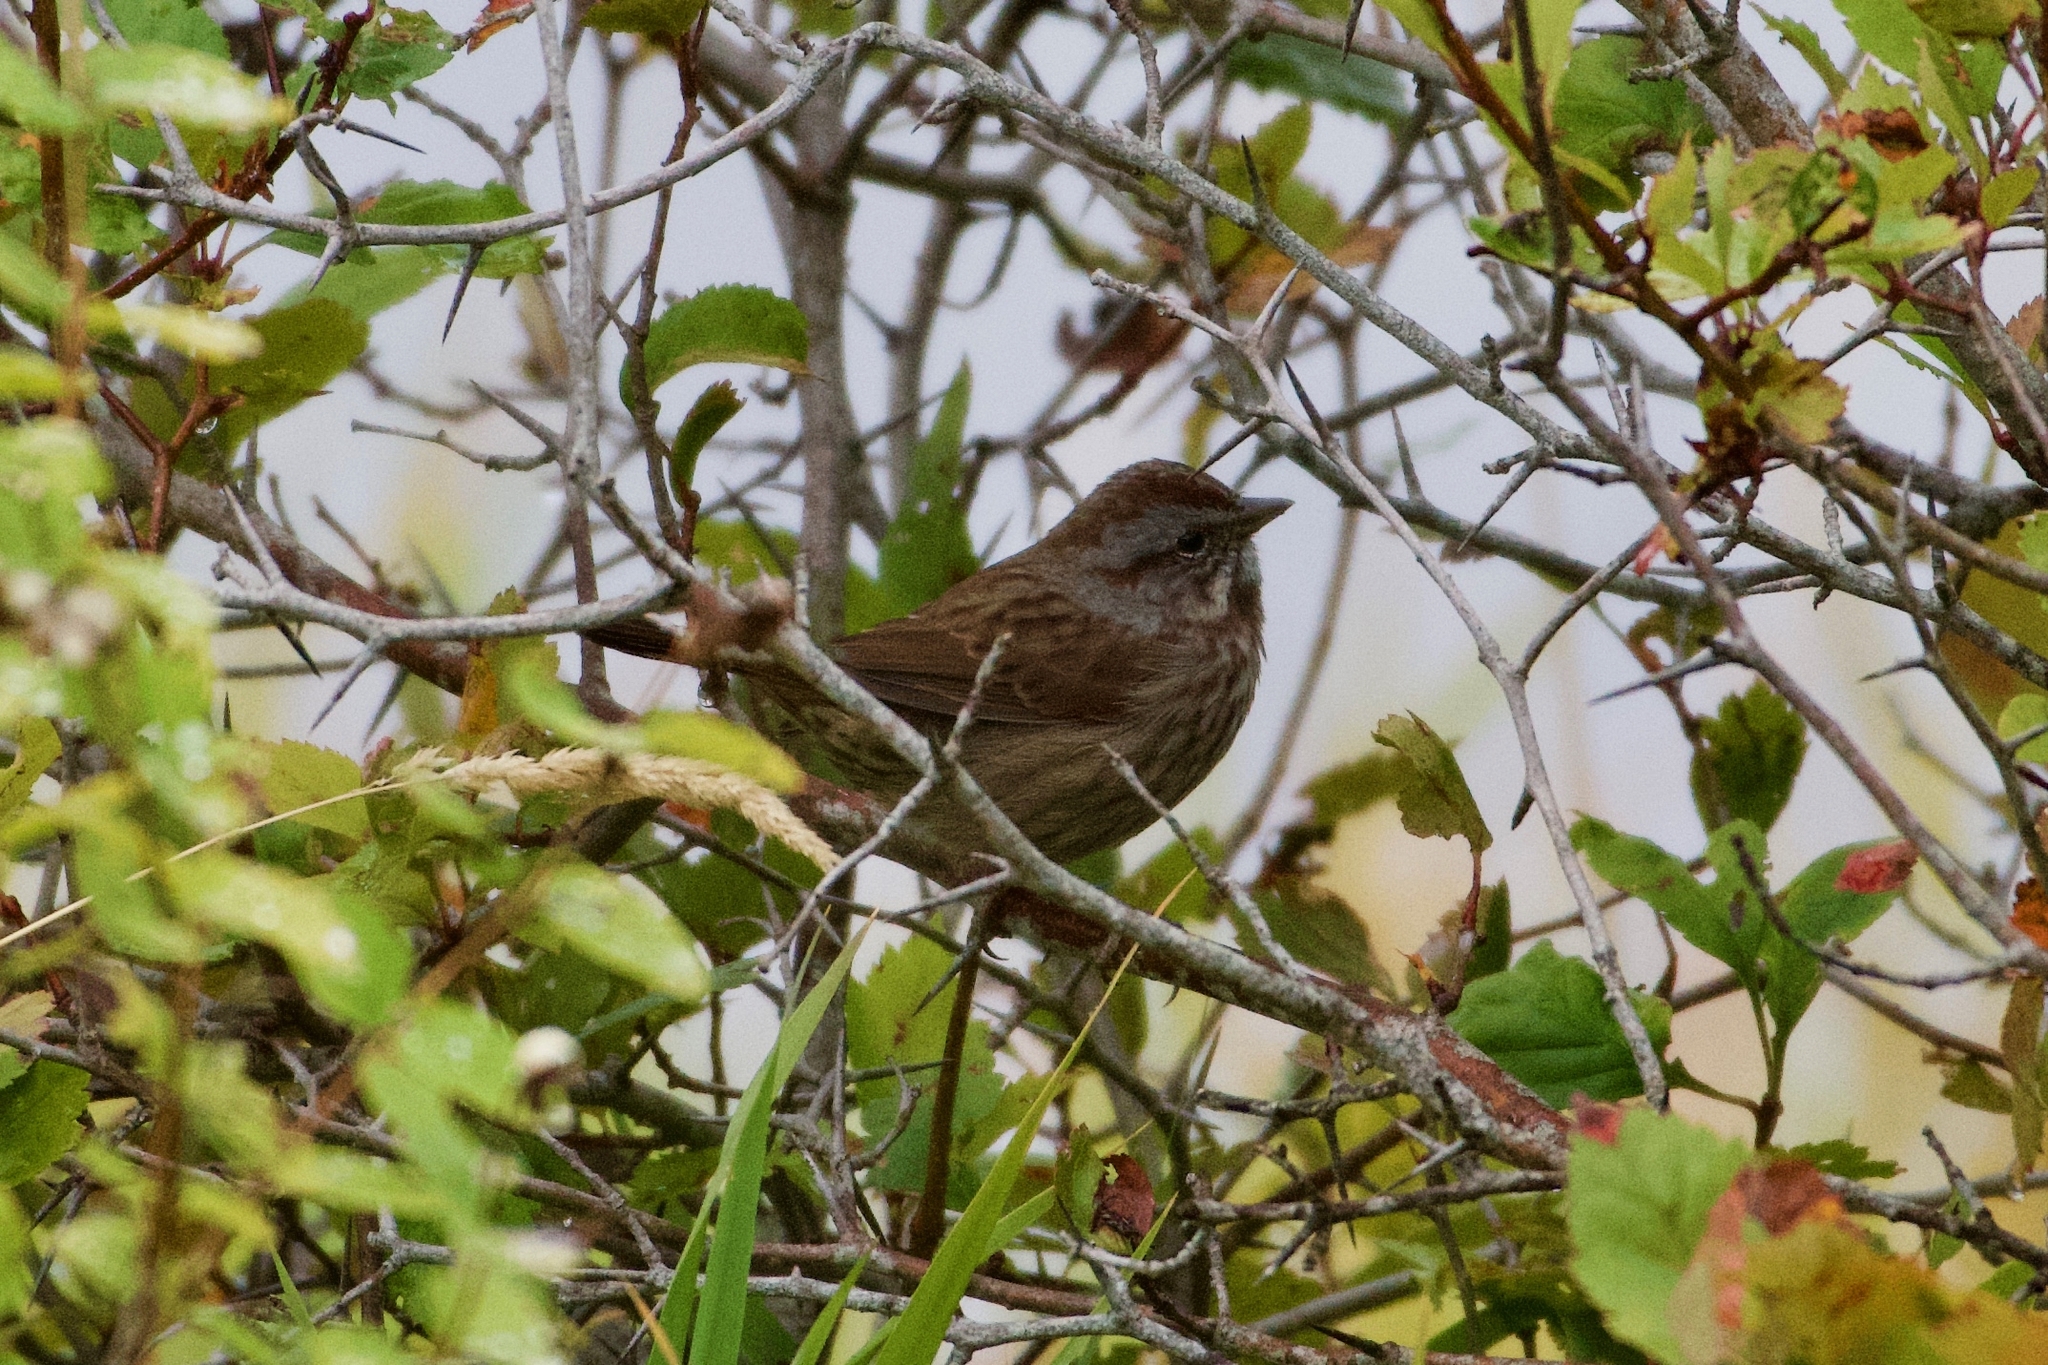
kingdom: Animalia
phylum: Chordata
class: Aves
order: Passeriformes
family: Passerellidae
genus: Melospiza
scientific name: Melospiza melodia
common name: Song sparrow
